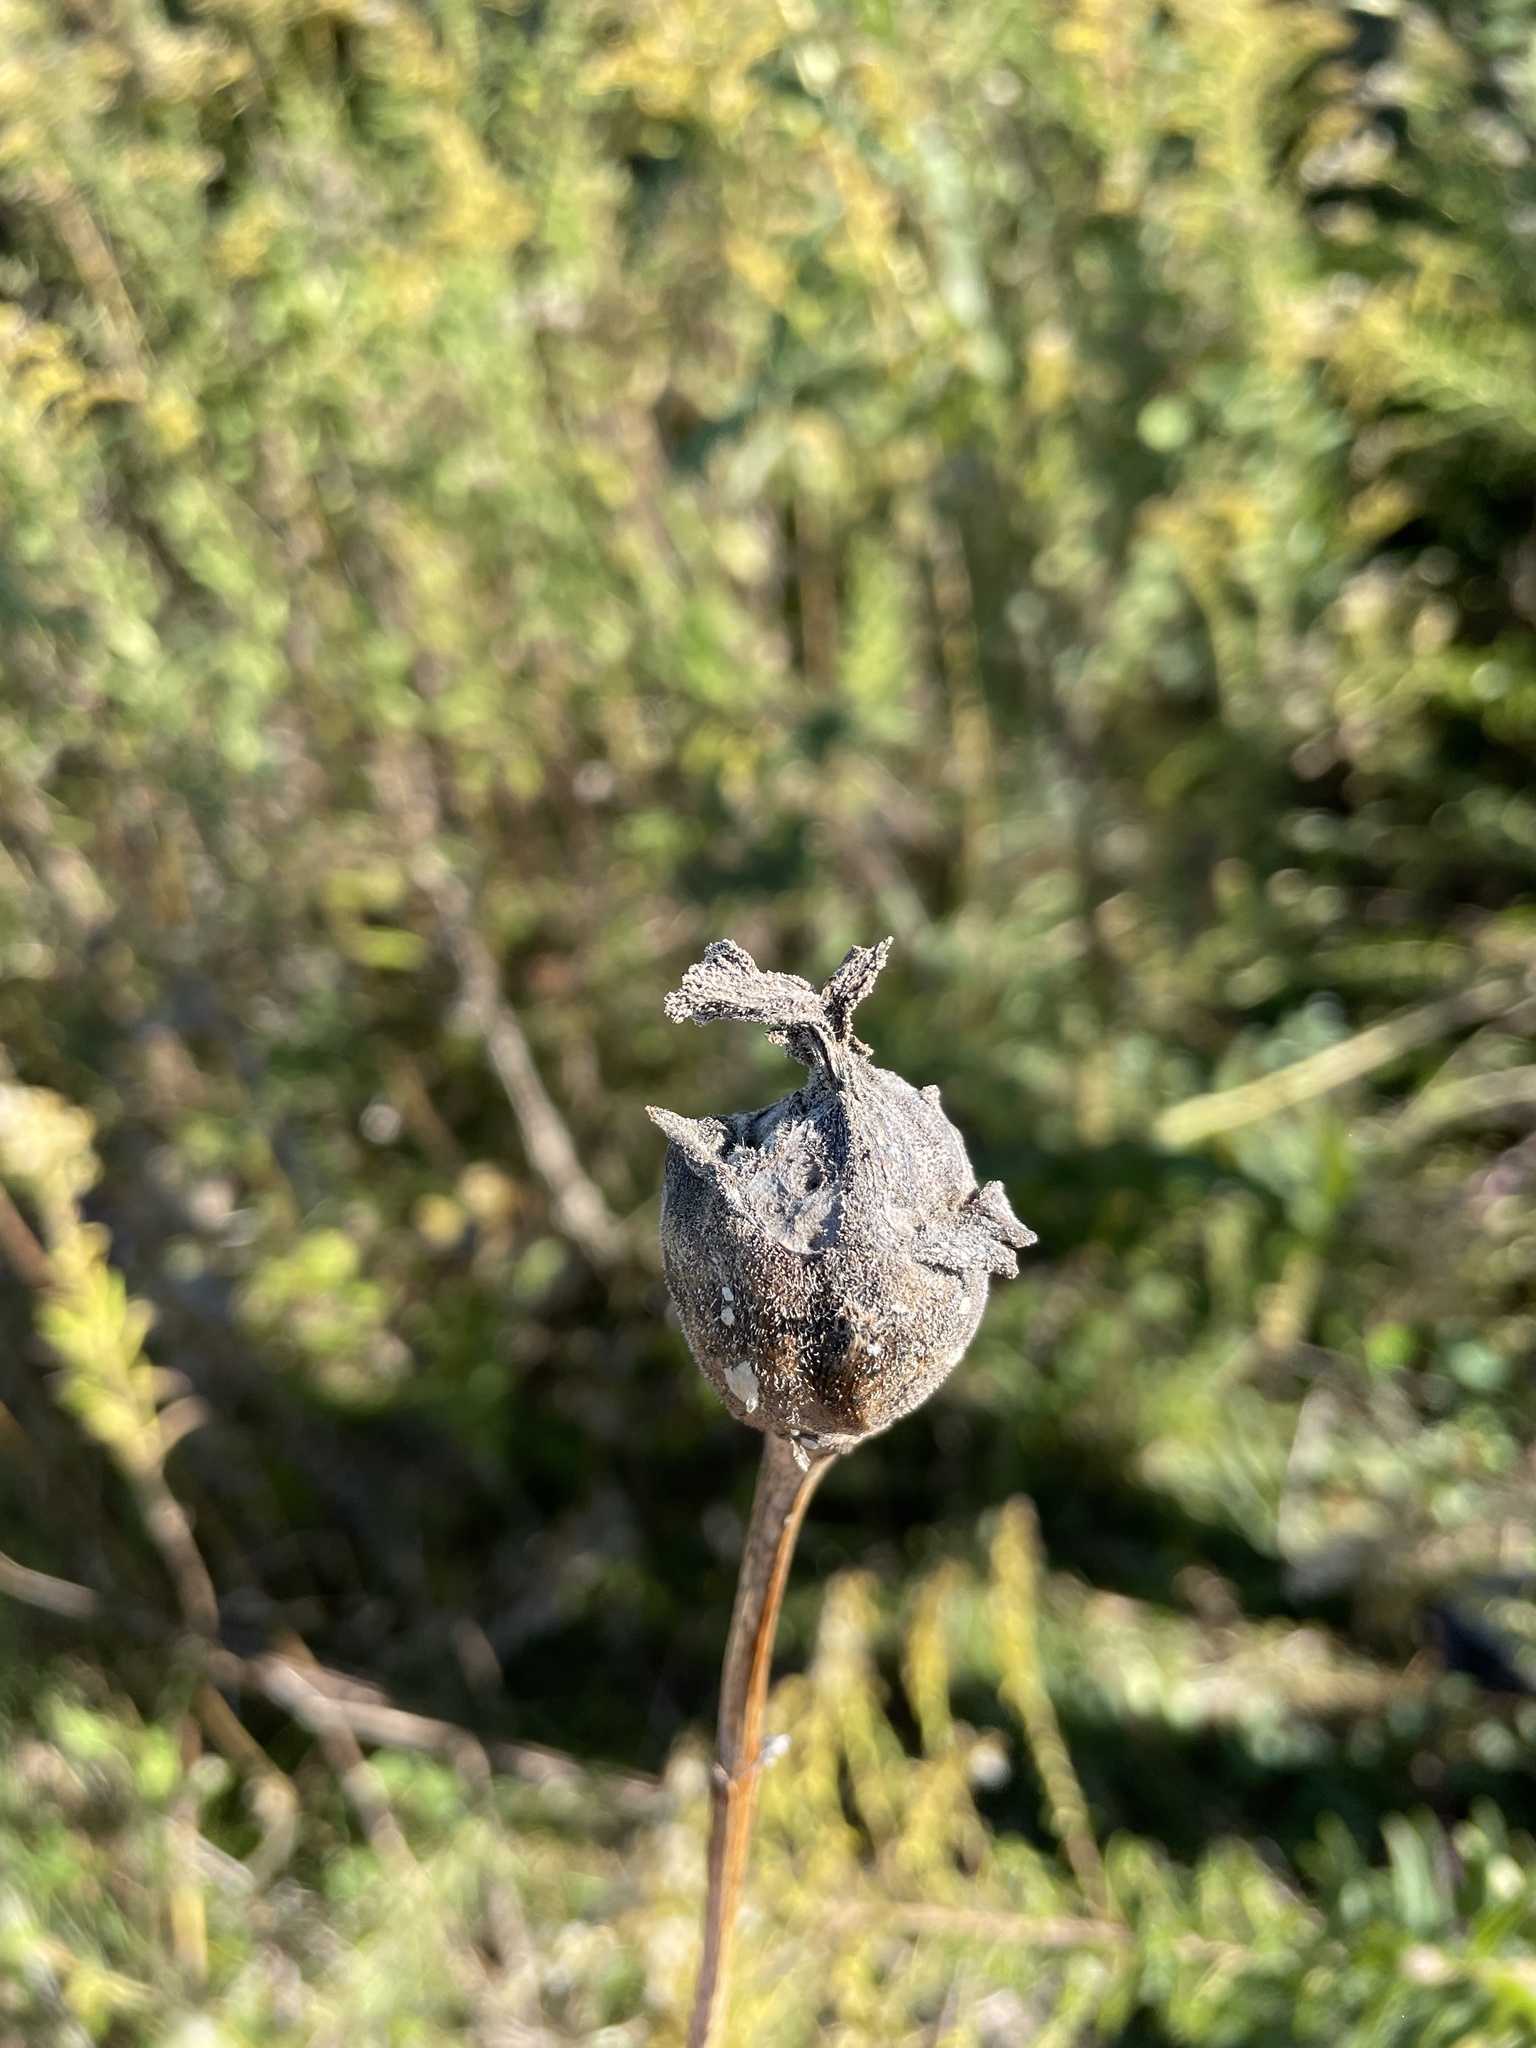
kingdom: Animalia
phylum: Arthropoda
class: Insecta
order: Hymenoptera
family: Cynipidae
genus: Antistrophus
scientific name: Antistrophus silphii
